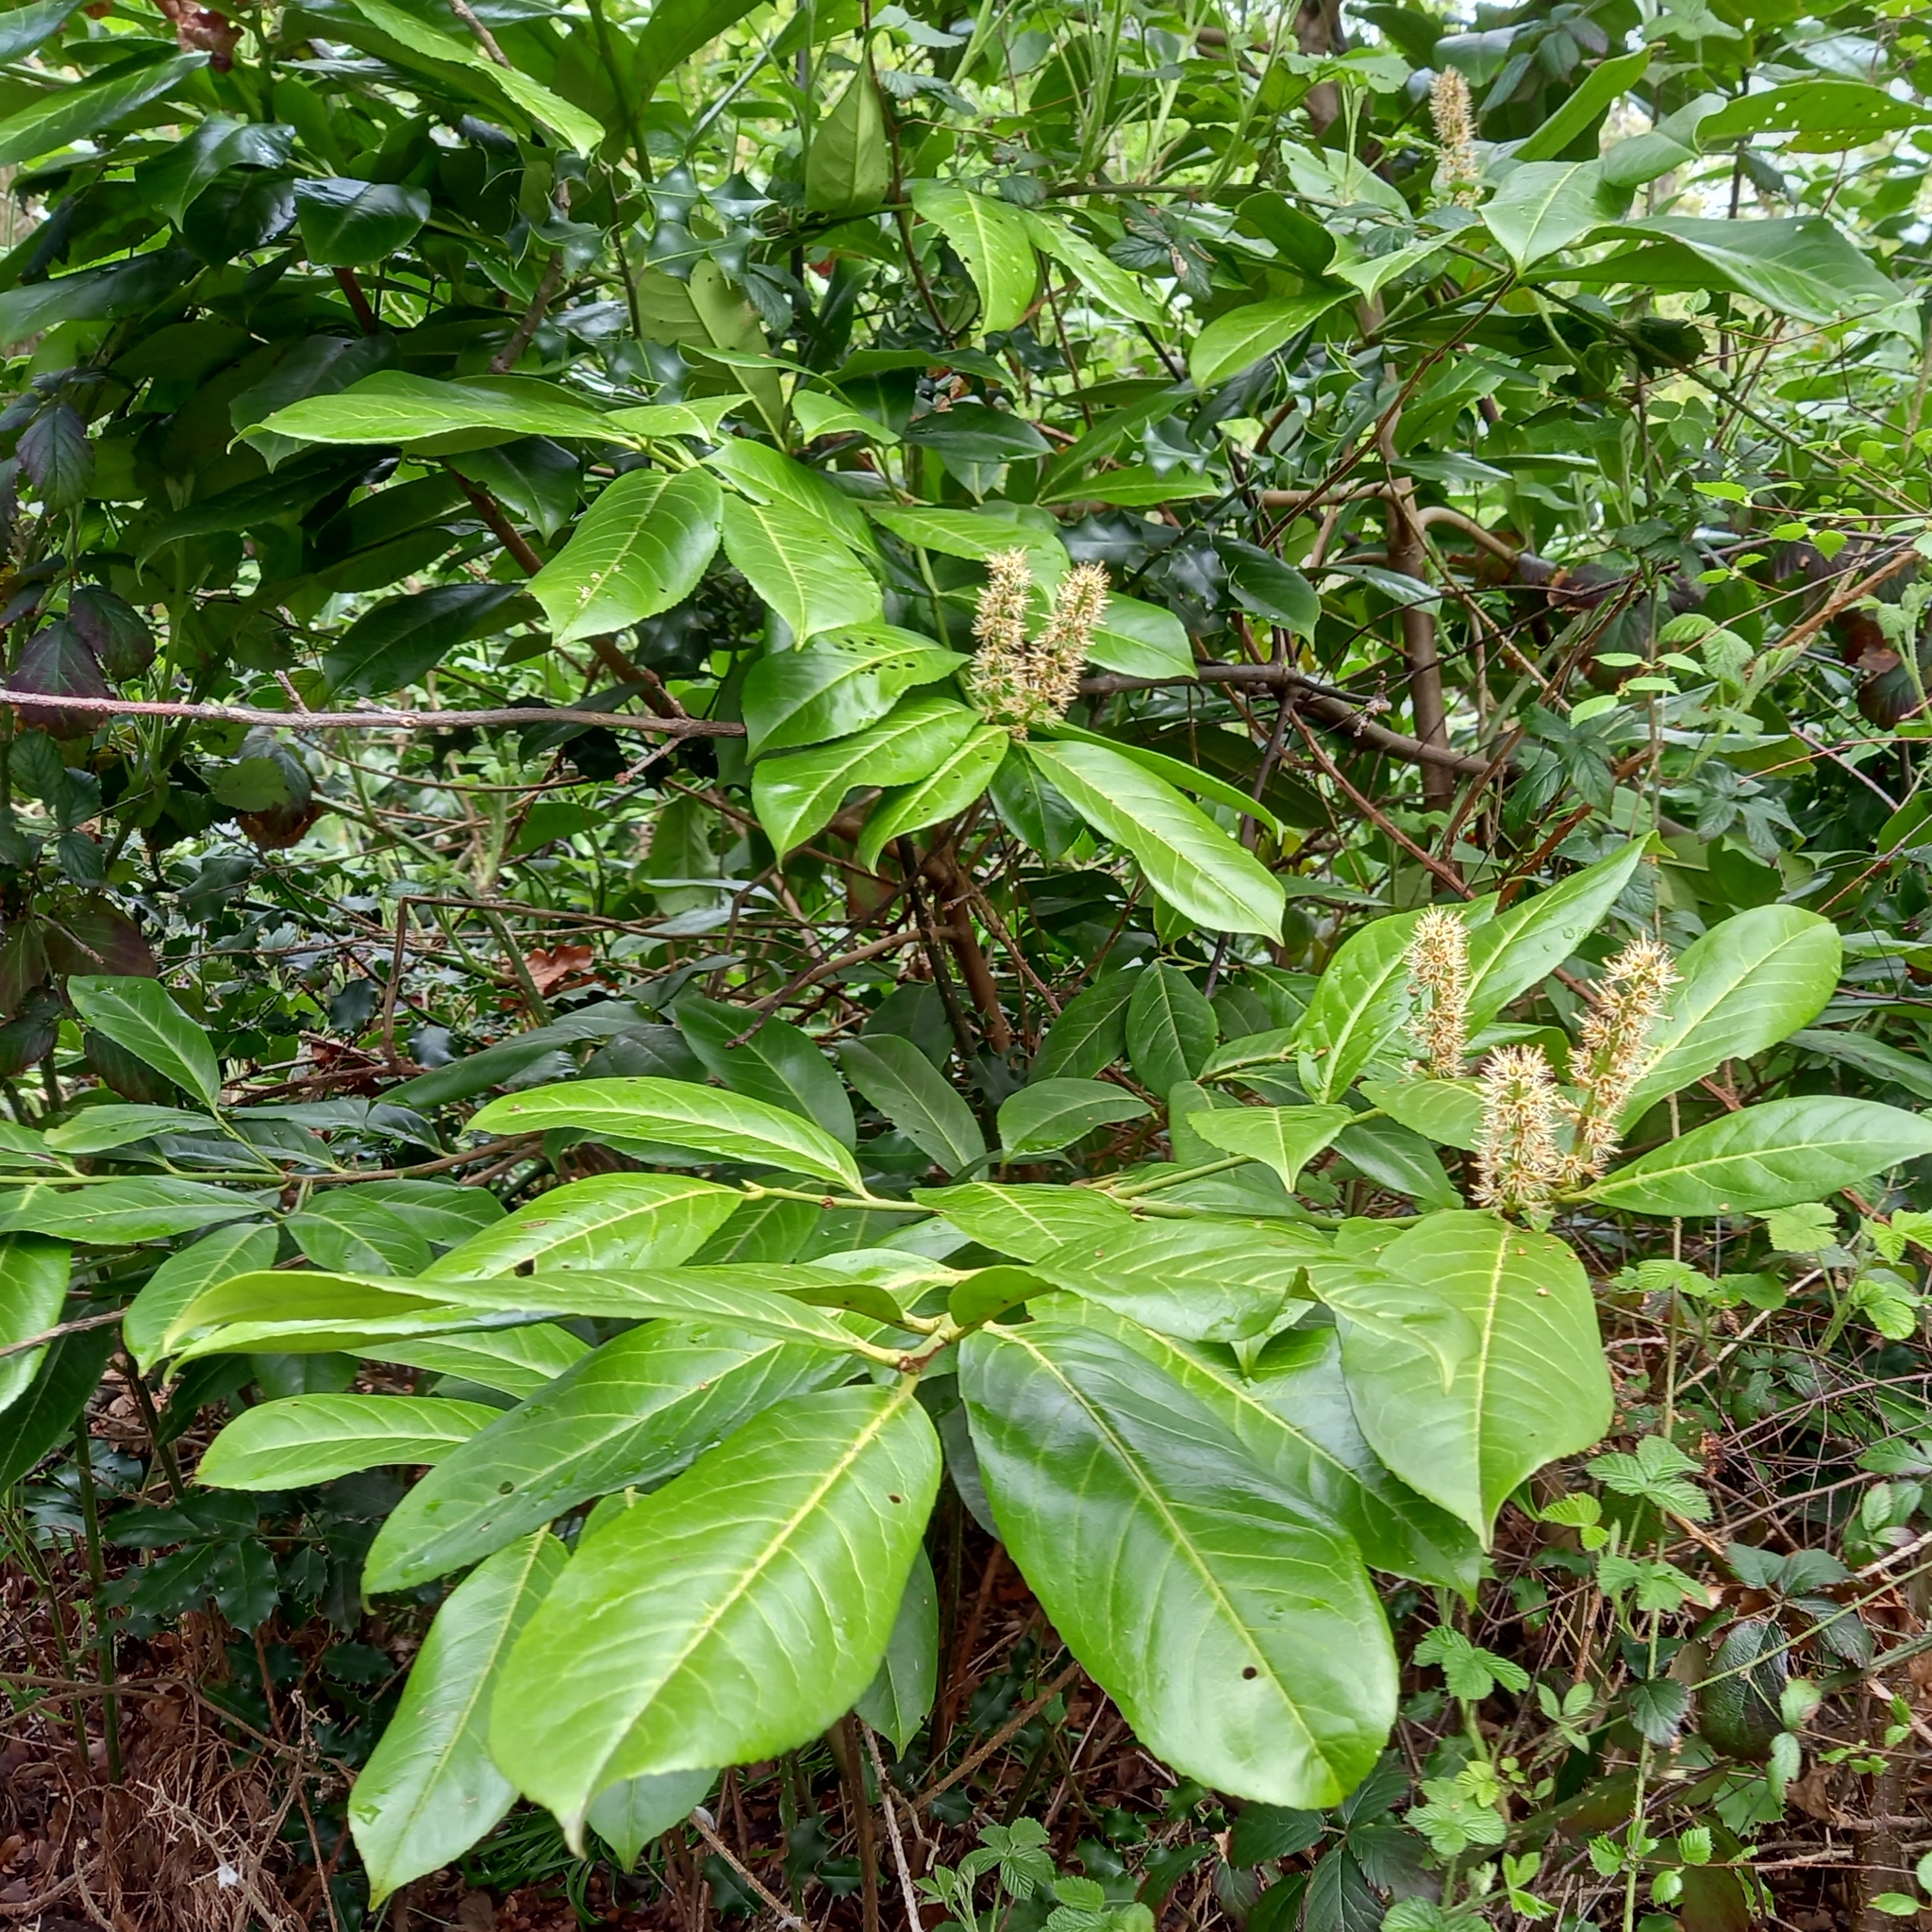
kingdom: Plantae
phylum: Tracheophyta
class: Magnoliopsida
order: Rosales
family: Rosaceae
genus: Prunus
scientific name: Prunus laurocerasus
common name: Cherry laurel
